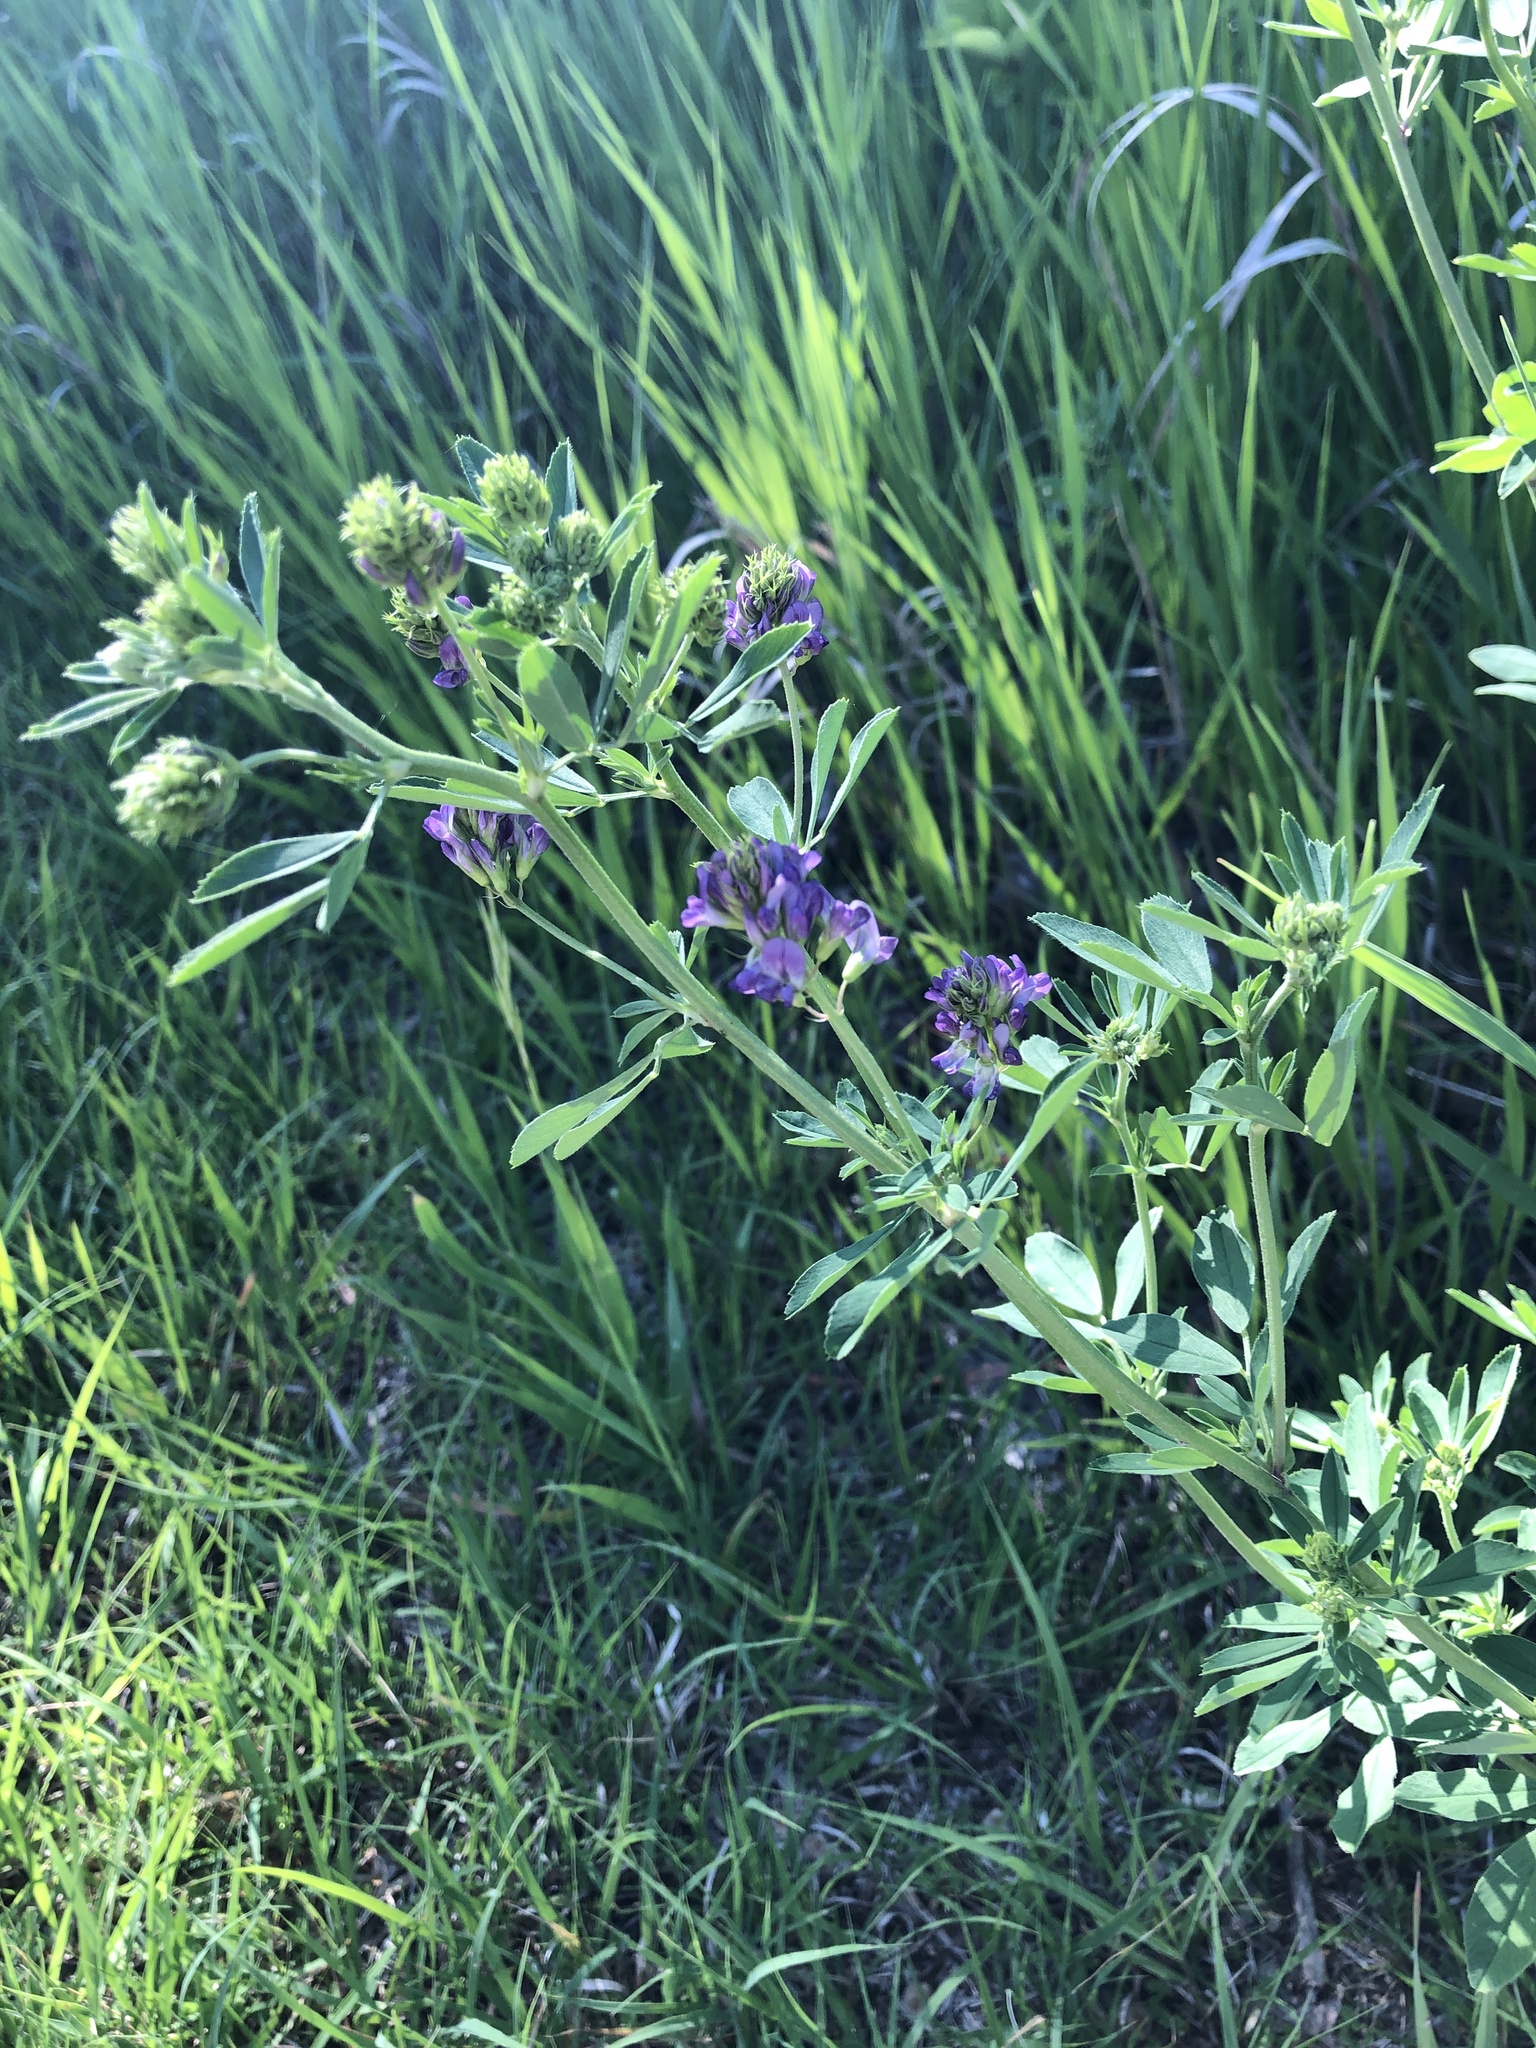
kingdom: Plantae
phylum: Tracheophyta
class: Magnoliopsida
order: Fabales
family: Fabaceae
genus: Medicago
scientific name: Medicago sativa
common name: Alfalfa
